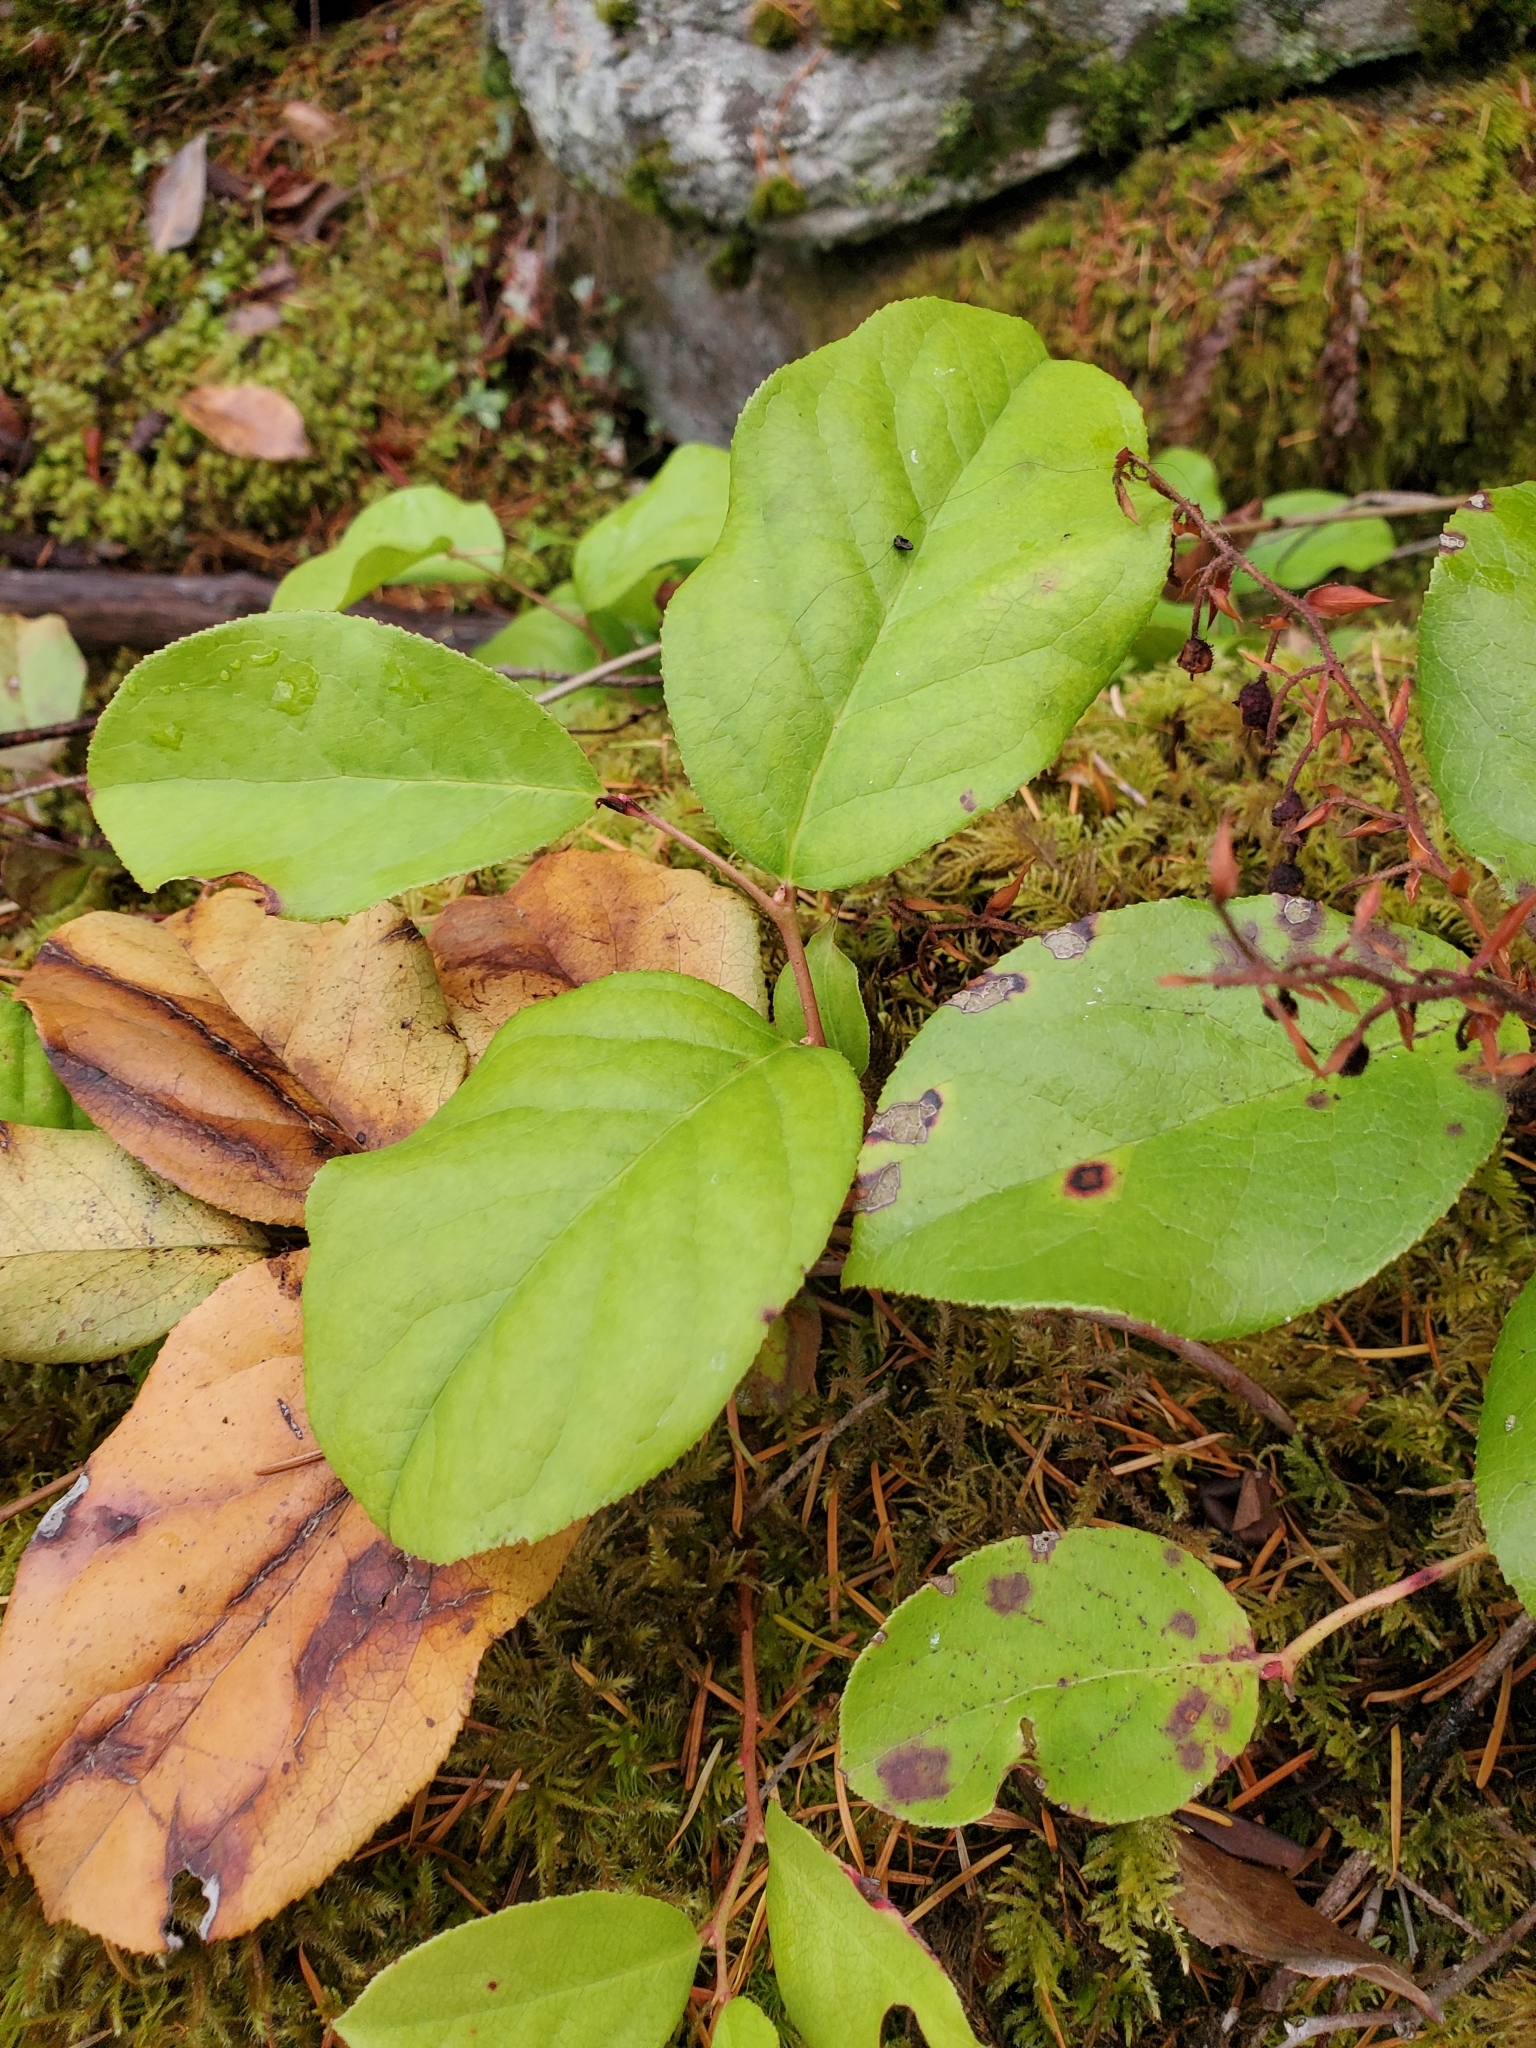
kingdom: Plantae
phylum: Tracheophyta
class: Magnoliopsida
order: Ericales
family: Ericaceae
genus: Gaultheria
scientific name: Gaultheria shallon
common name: Shallon
